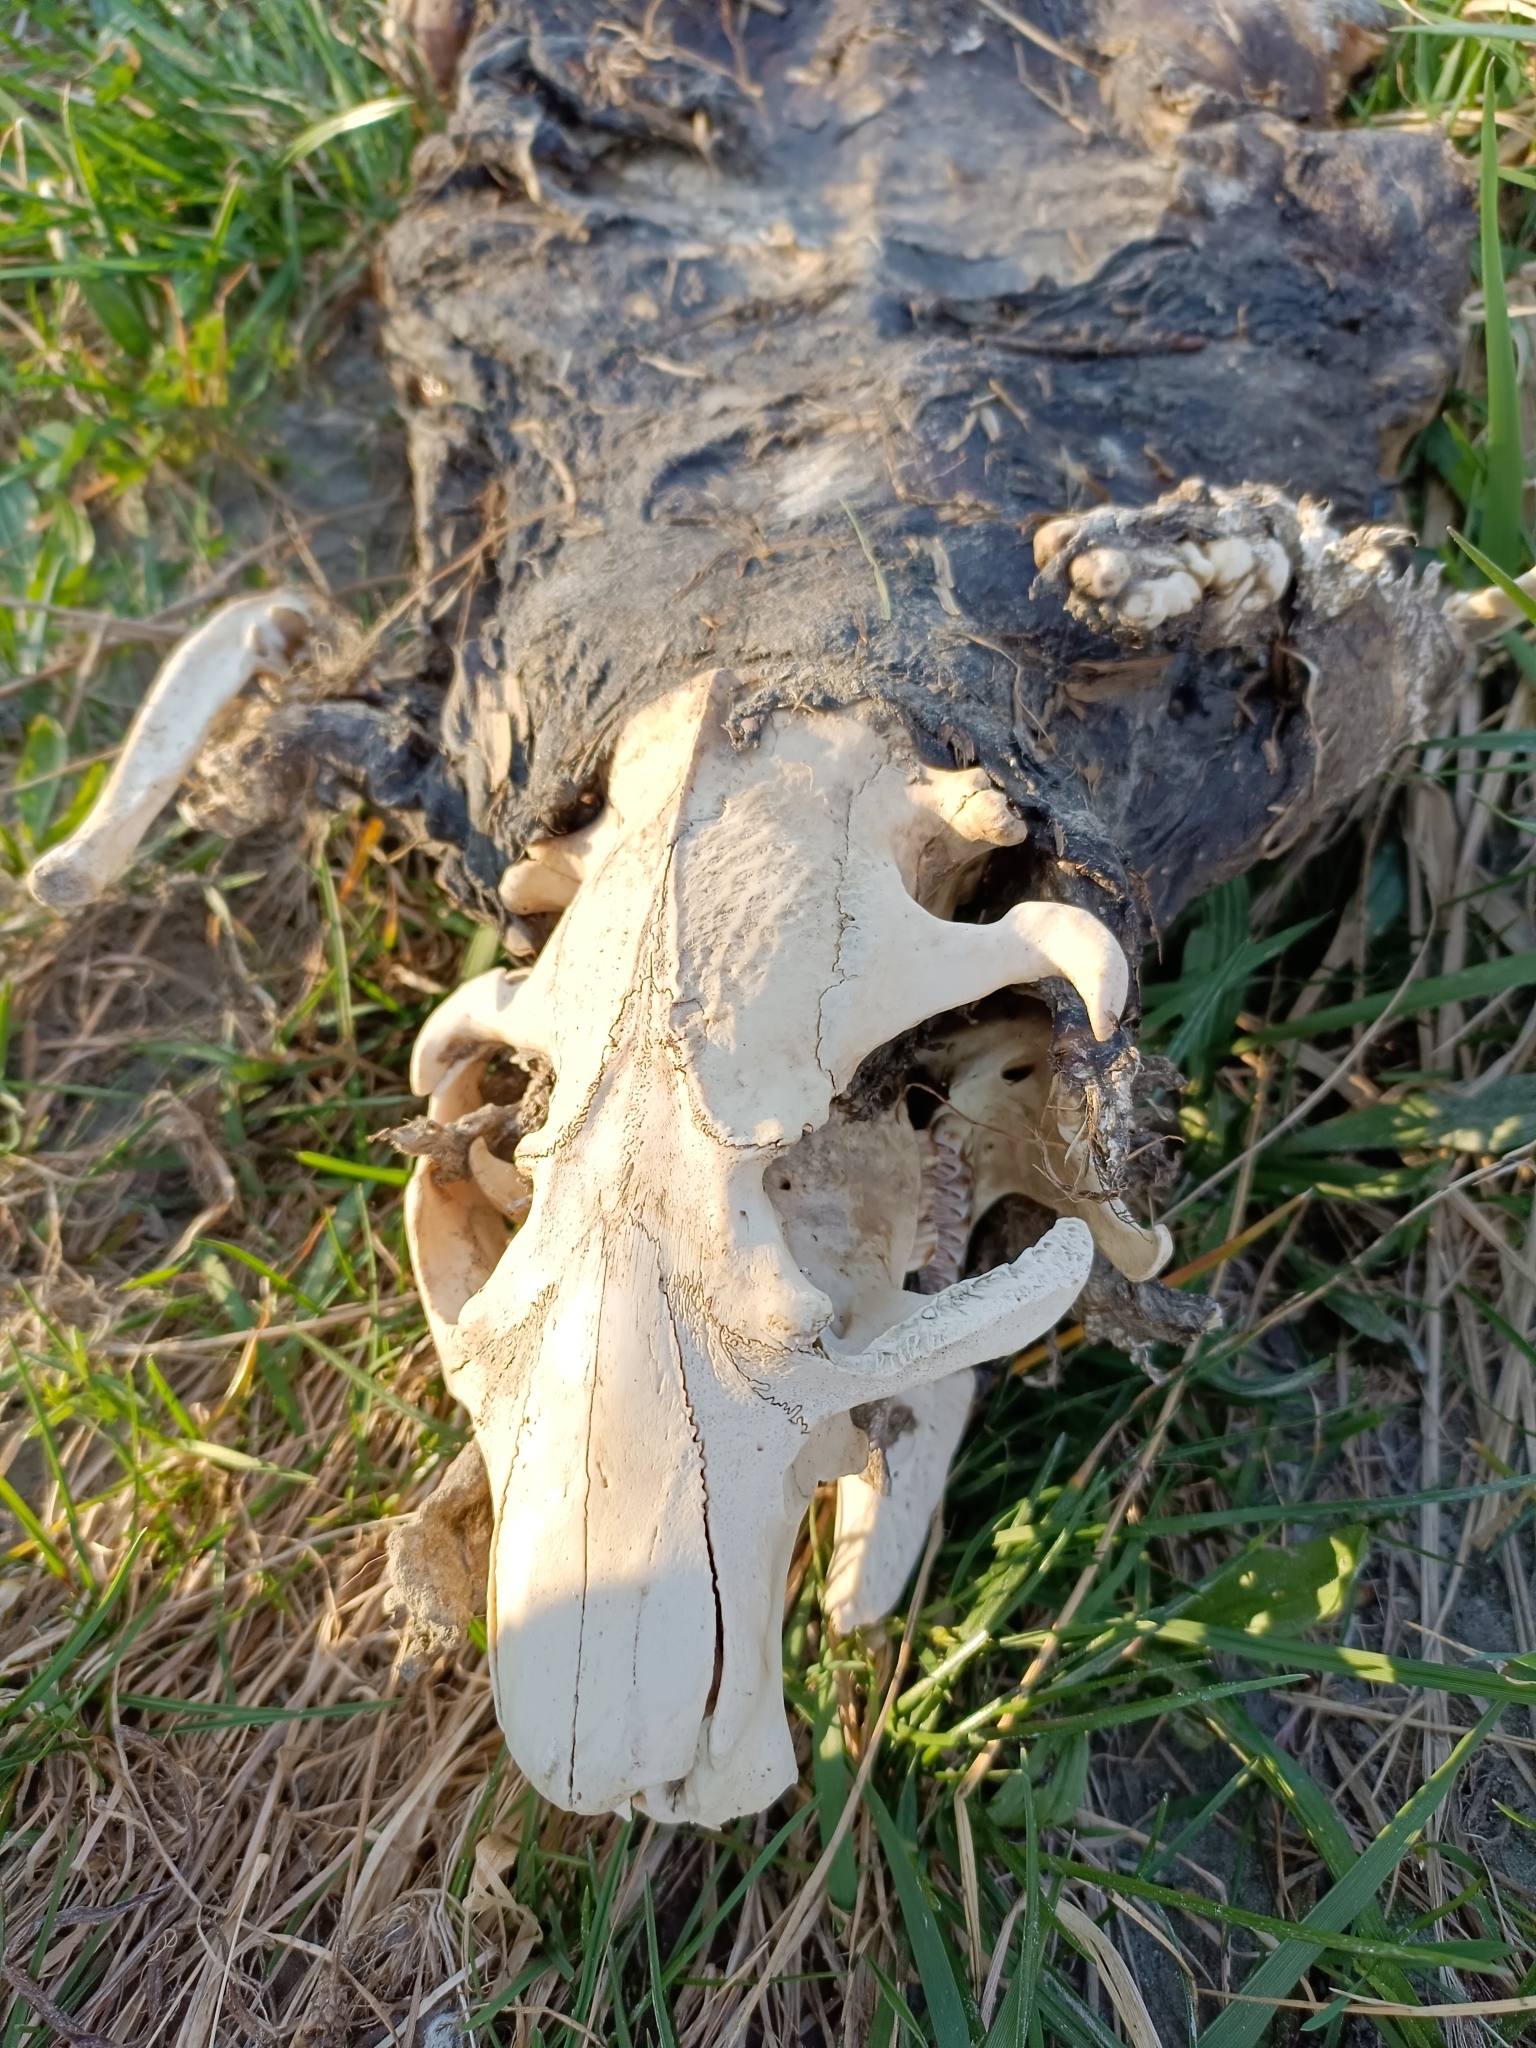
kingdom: Animalia
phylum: Chordata
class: Mammalia
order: Rodentia
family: Castoridae
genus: Castor
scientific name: Castor fiber
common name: Eurasian beaver
